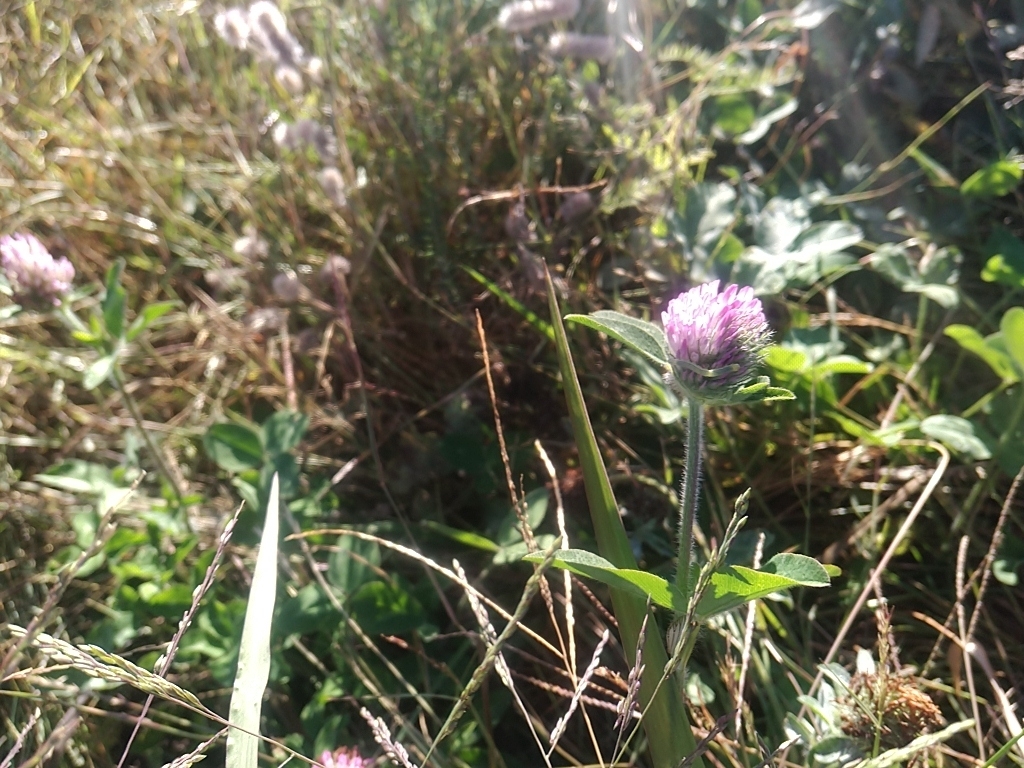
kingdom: Plantae
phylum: Tracheophyta
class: Magnoliopsida
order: Fabales
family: Fabaceae
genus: Trifolium
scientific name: Trifolium pratense
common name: Red clover
